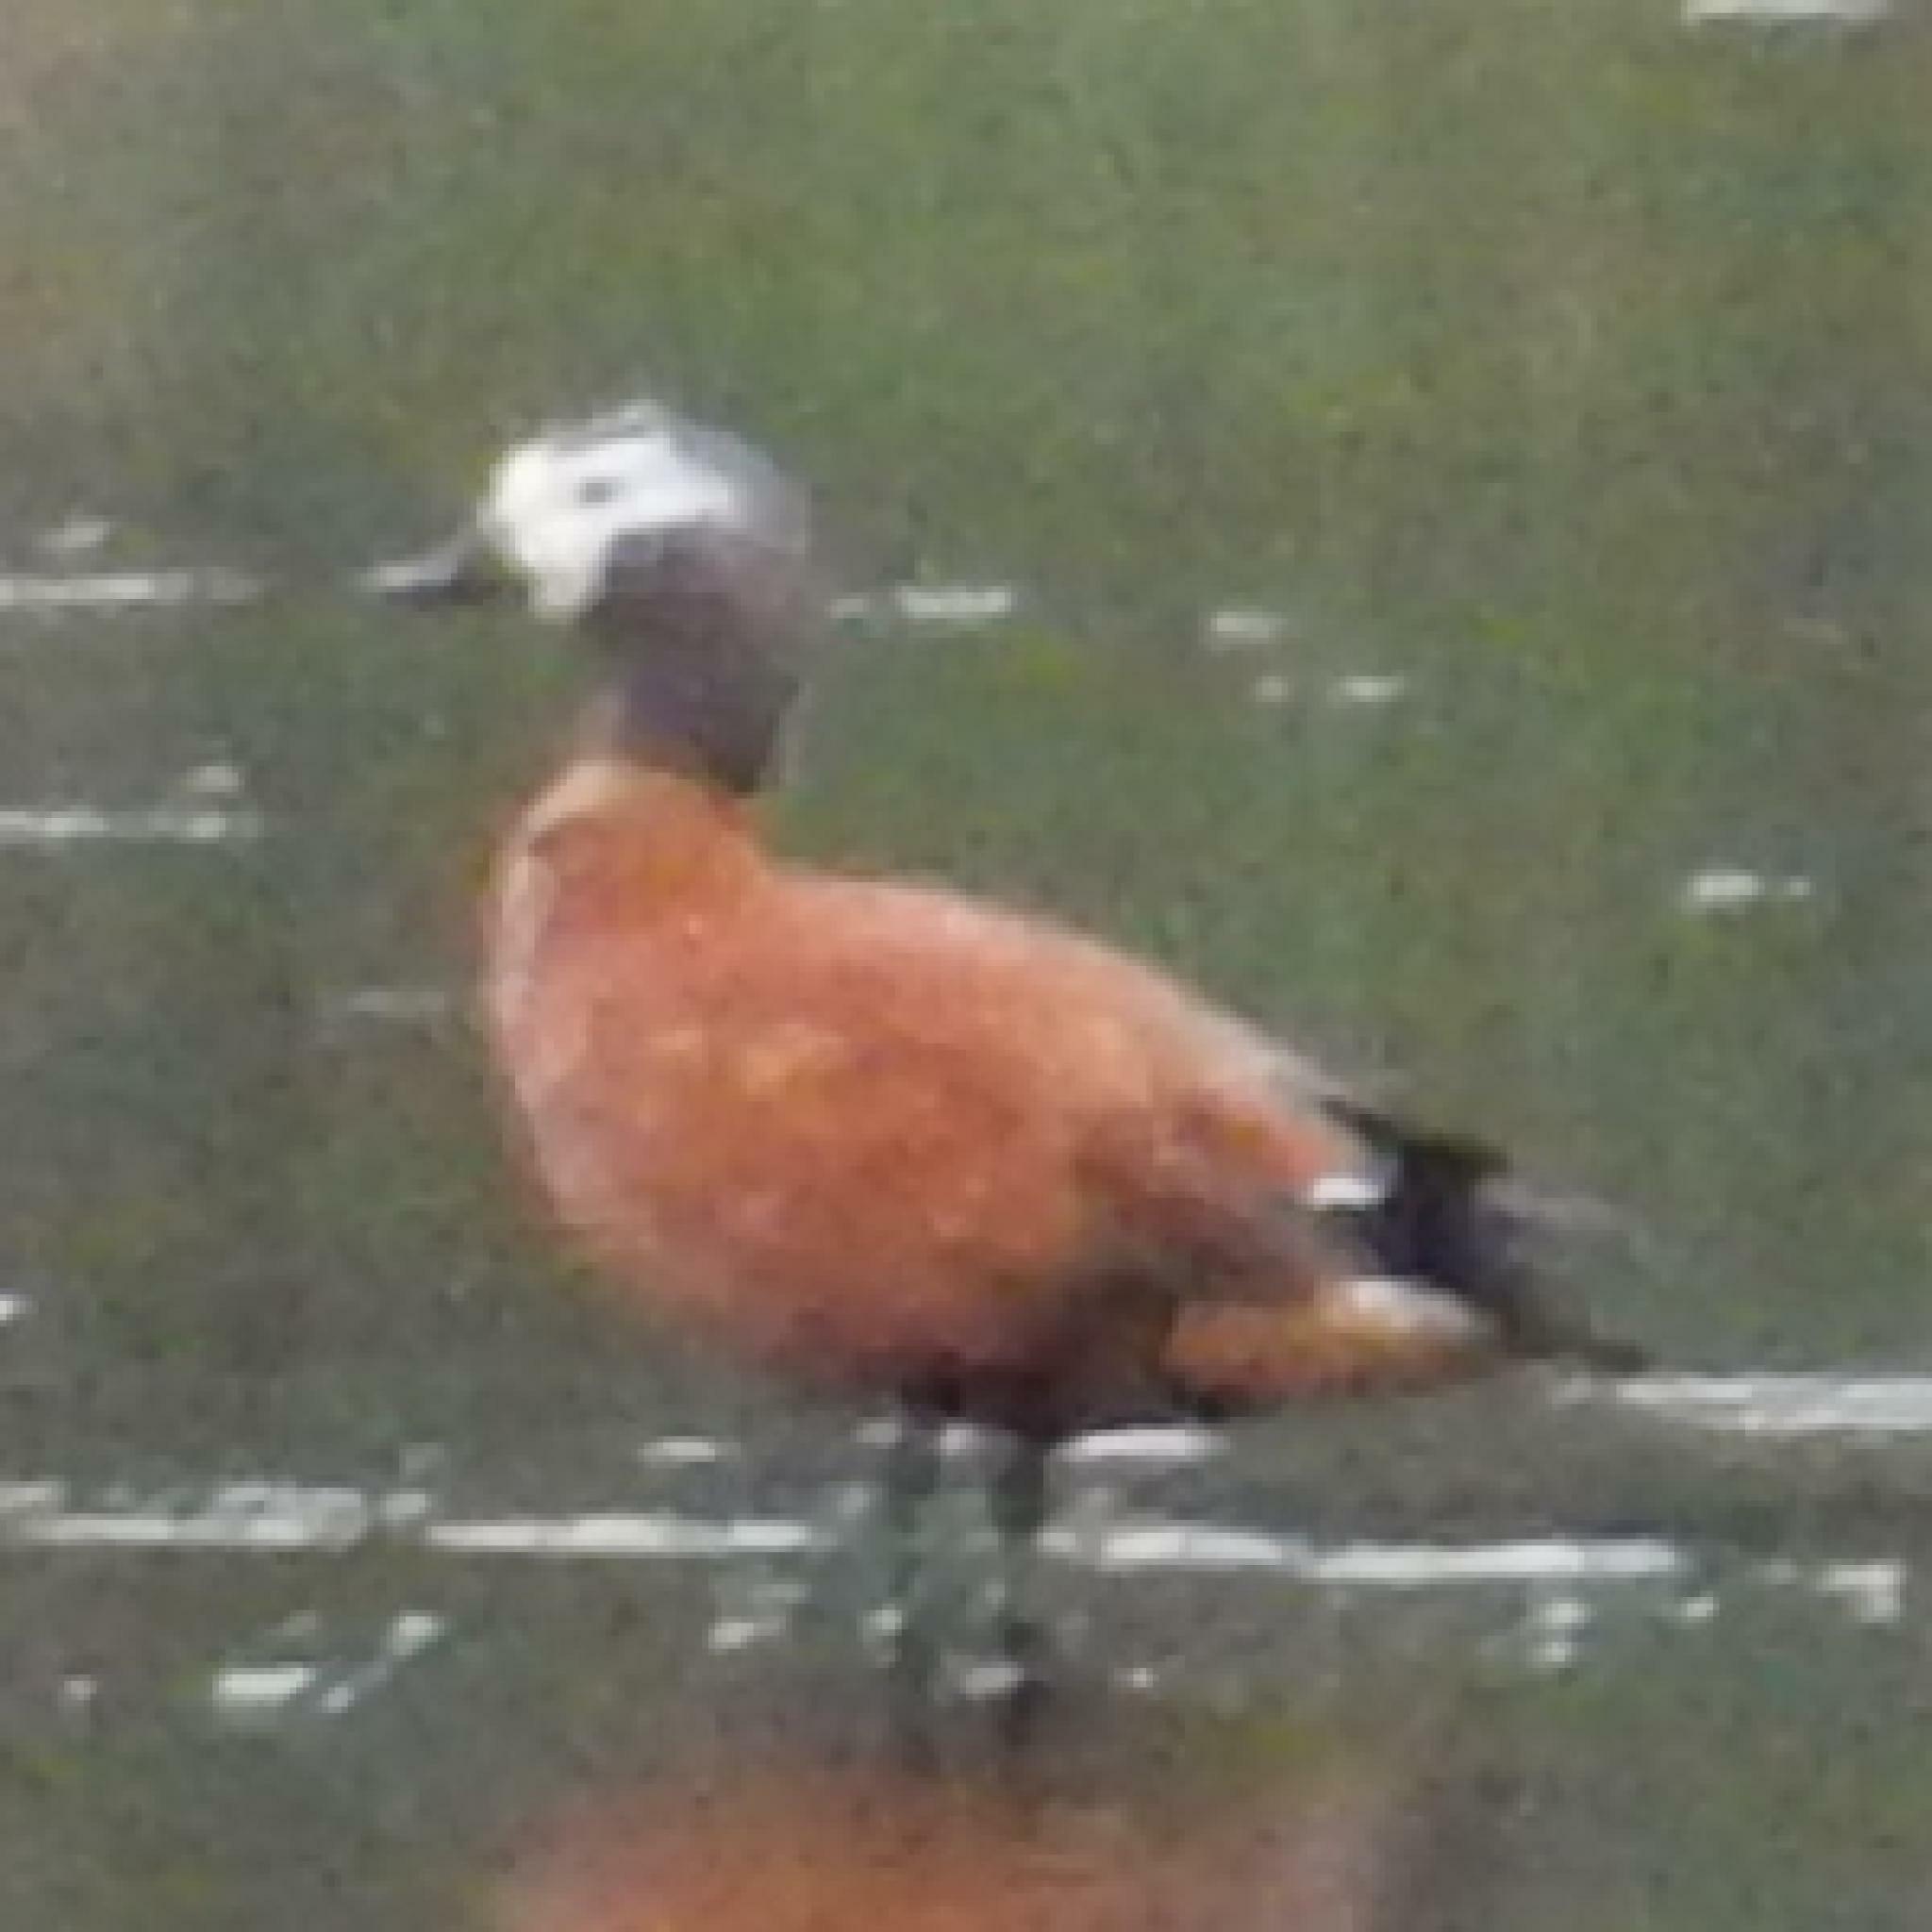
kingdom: Animalia
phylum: Chordata
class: Aves
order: Anseriformes
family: Anatidae
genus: Tadorna
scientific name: Tadorna cana
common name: South african shelduck
